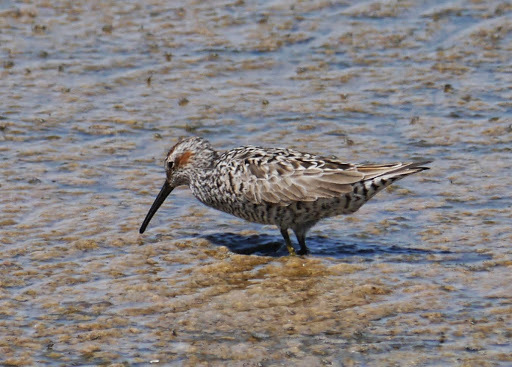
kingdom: Animalia
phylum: Chordata
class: Aves
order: Charadriiformes
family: Scolopacidae
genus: Calidris
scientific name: Calidris himantopus
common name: Stilt sandpiper
